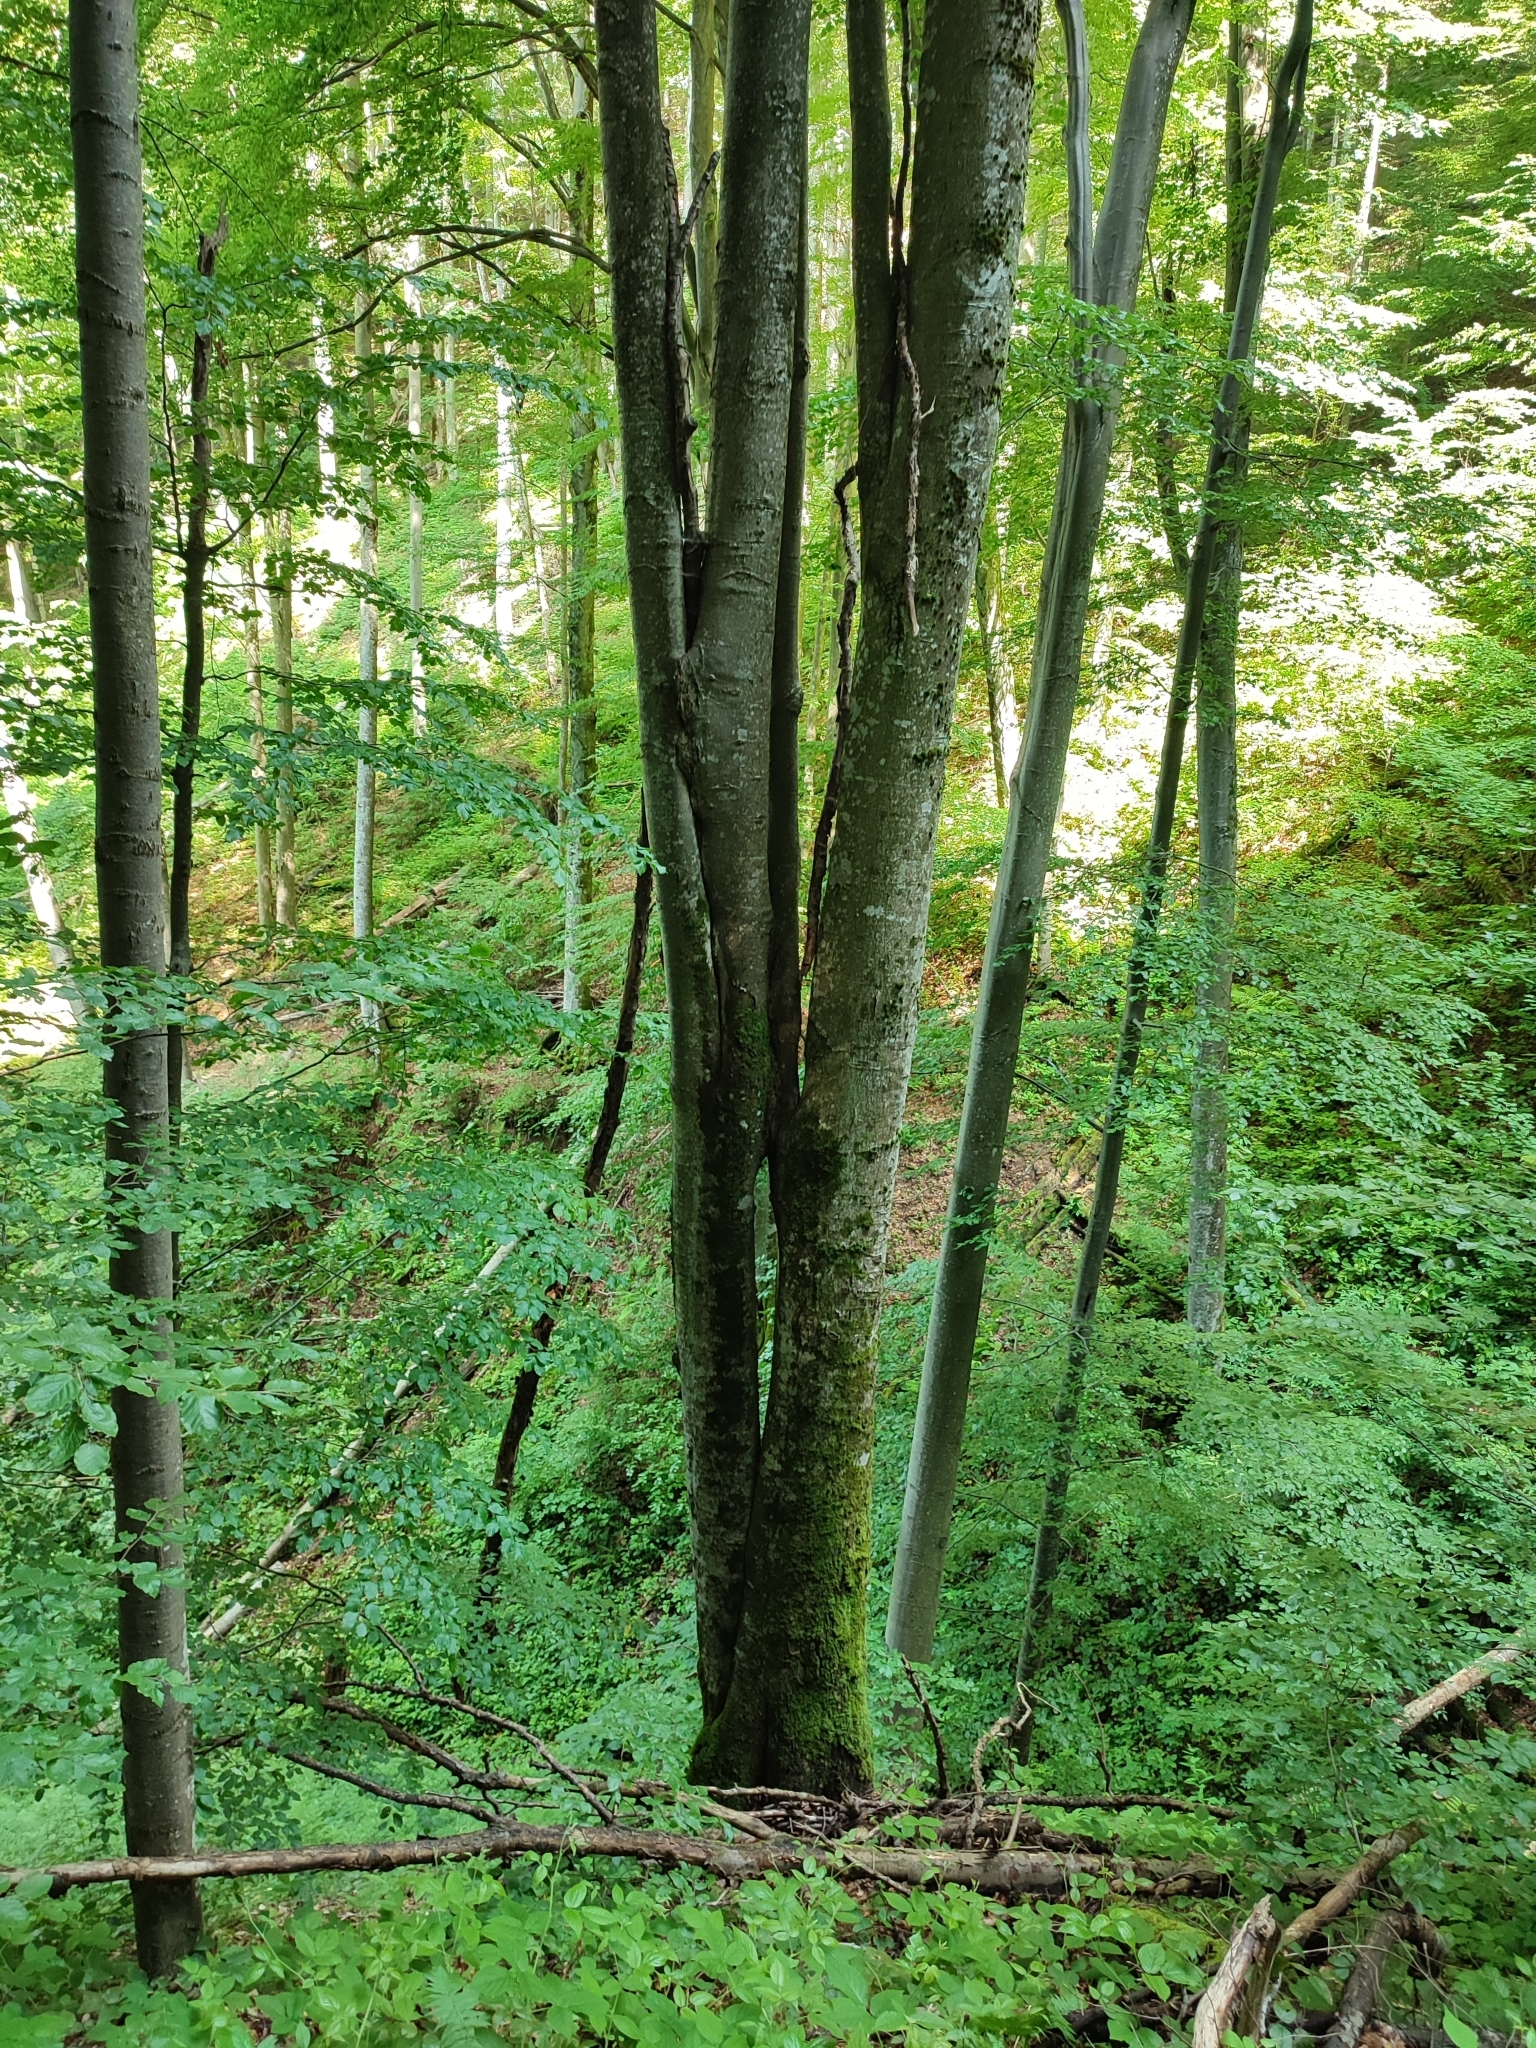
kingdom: Plantae
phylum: Tracheophyta
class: Magnoliopsida
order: Fagales
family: Fagaceae
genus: Fagus
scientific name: Fagus sylvatica
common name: Beech
